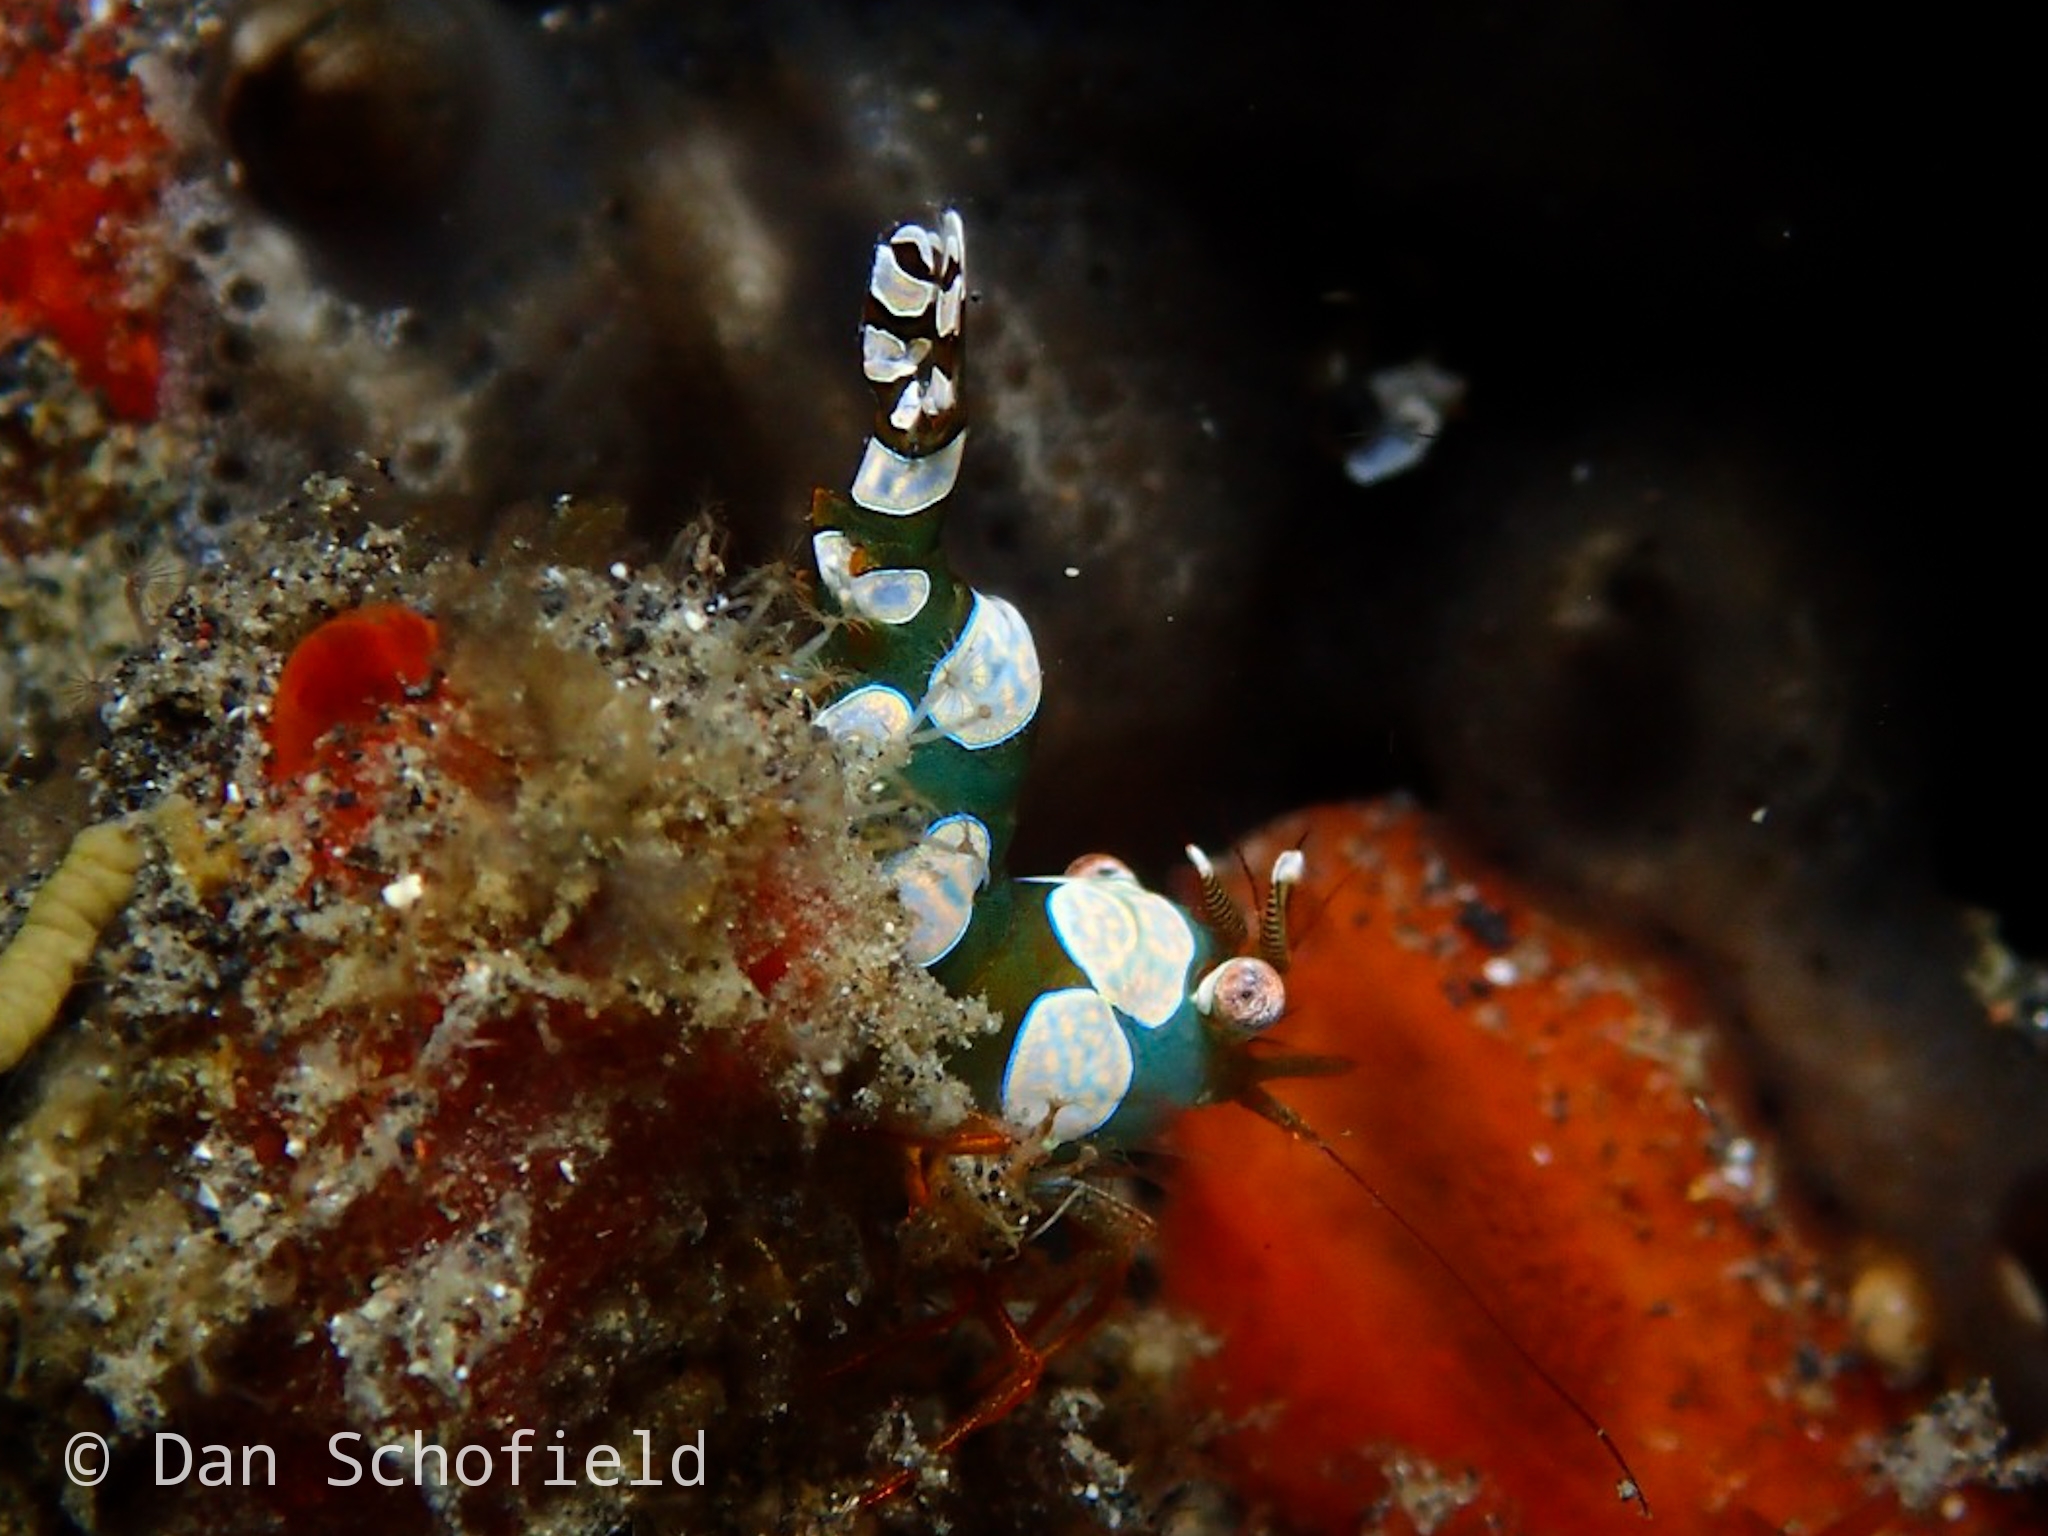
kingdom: Animalia
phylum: Arthropoda
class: Malacostraca
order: Decapoda
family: Thoridae
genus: Thor
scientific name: Thor amboinensis
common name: Squat anemone shrimp
